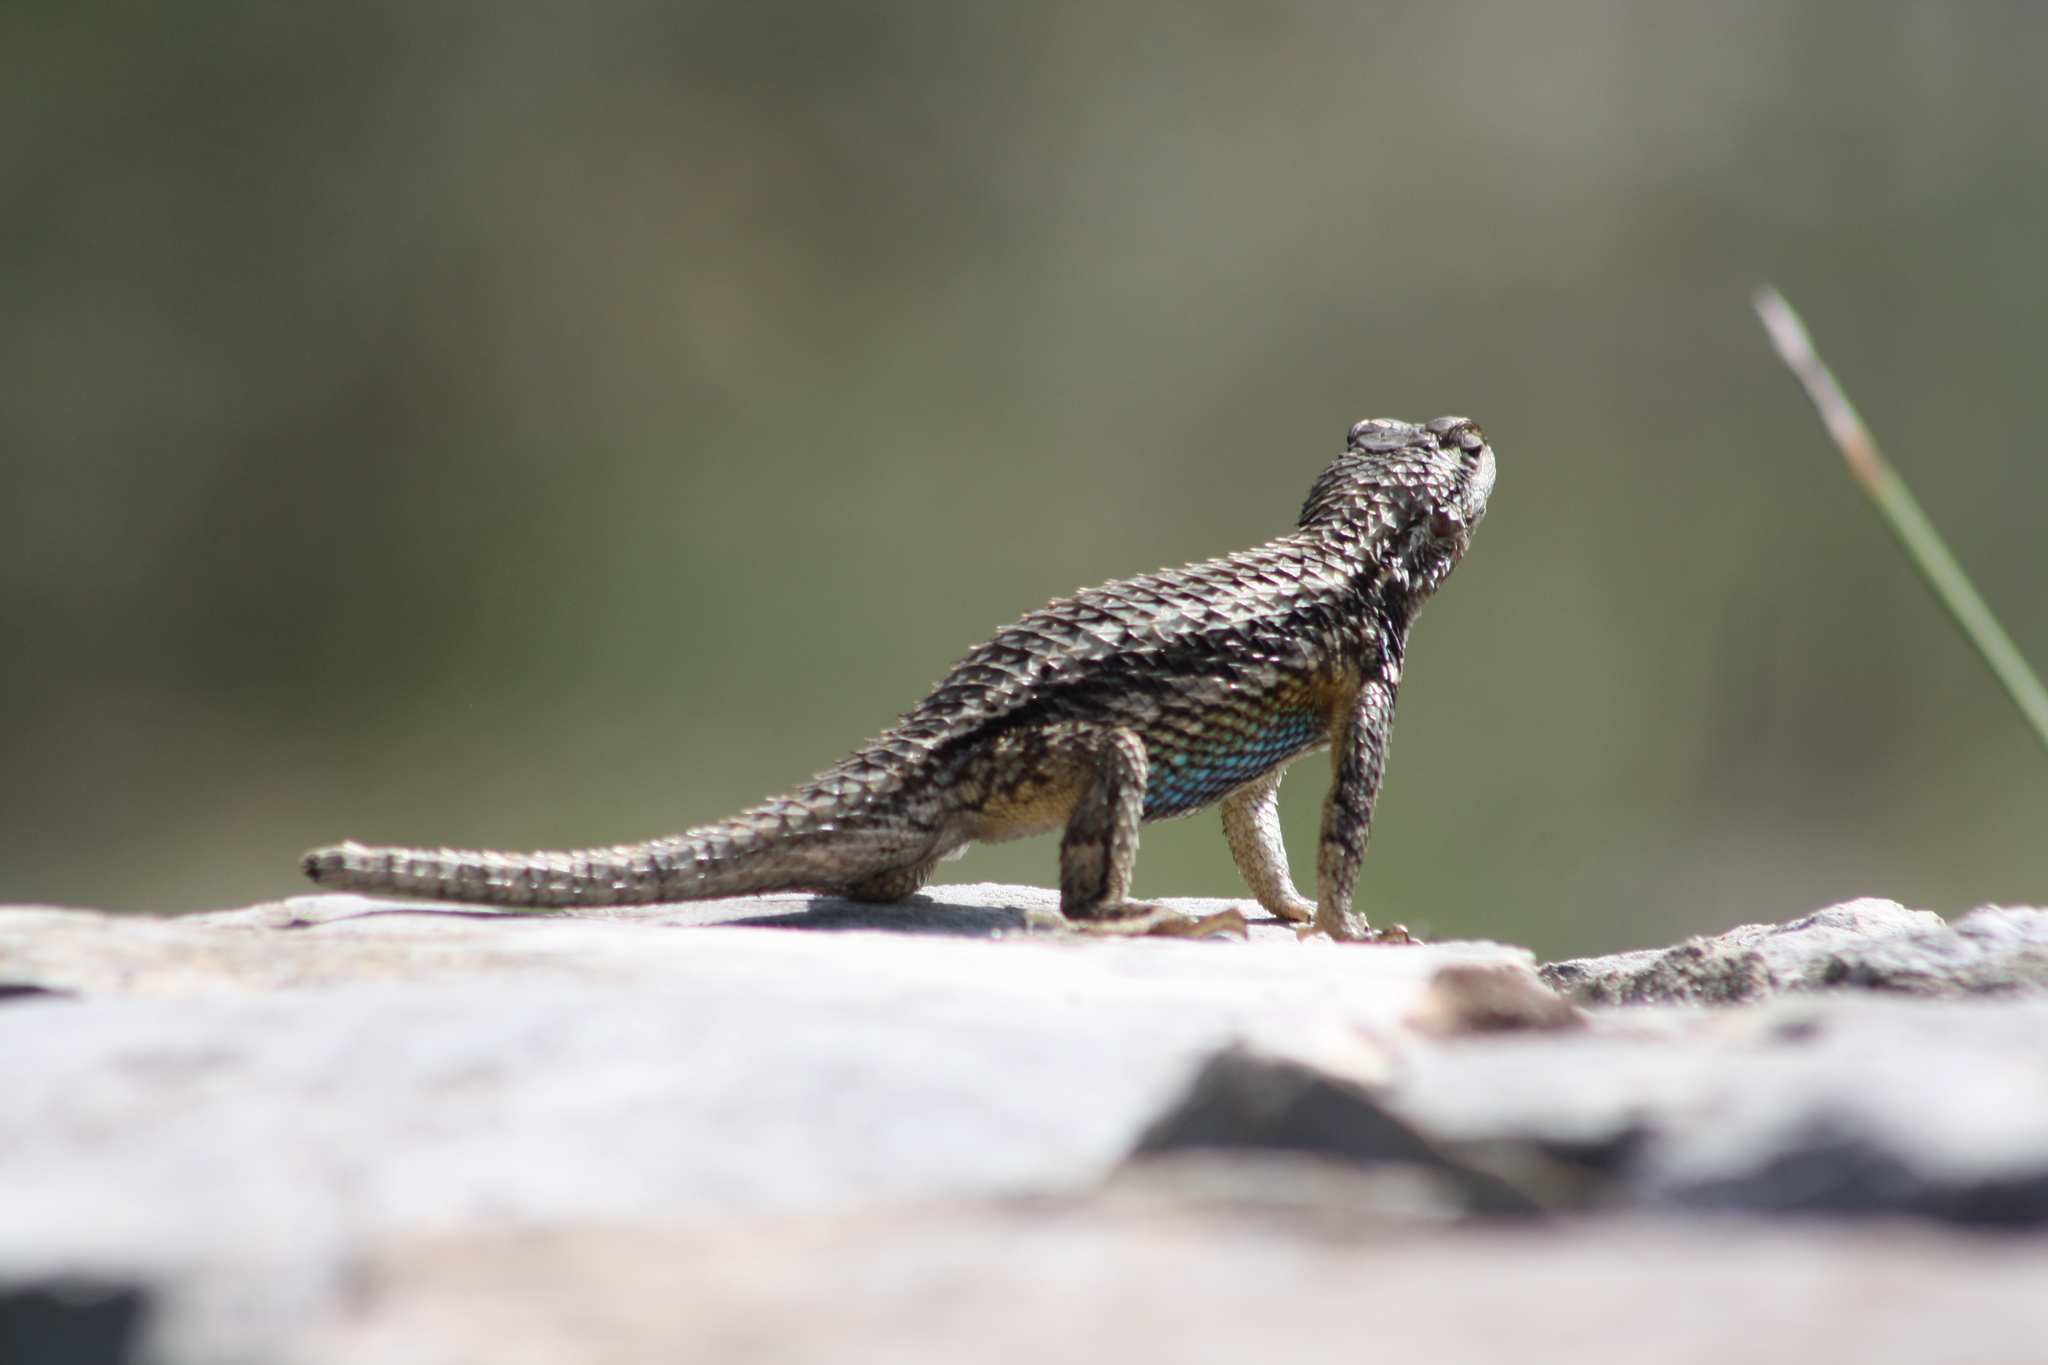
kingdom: Animalia
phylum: Chordata
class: Squamata
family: Phrynosomatidae
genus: Sceloporus
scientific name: Sceloporus olivaceus
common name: Texas spiny lizard
